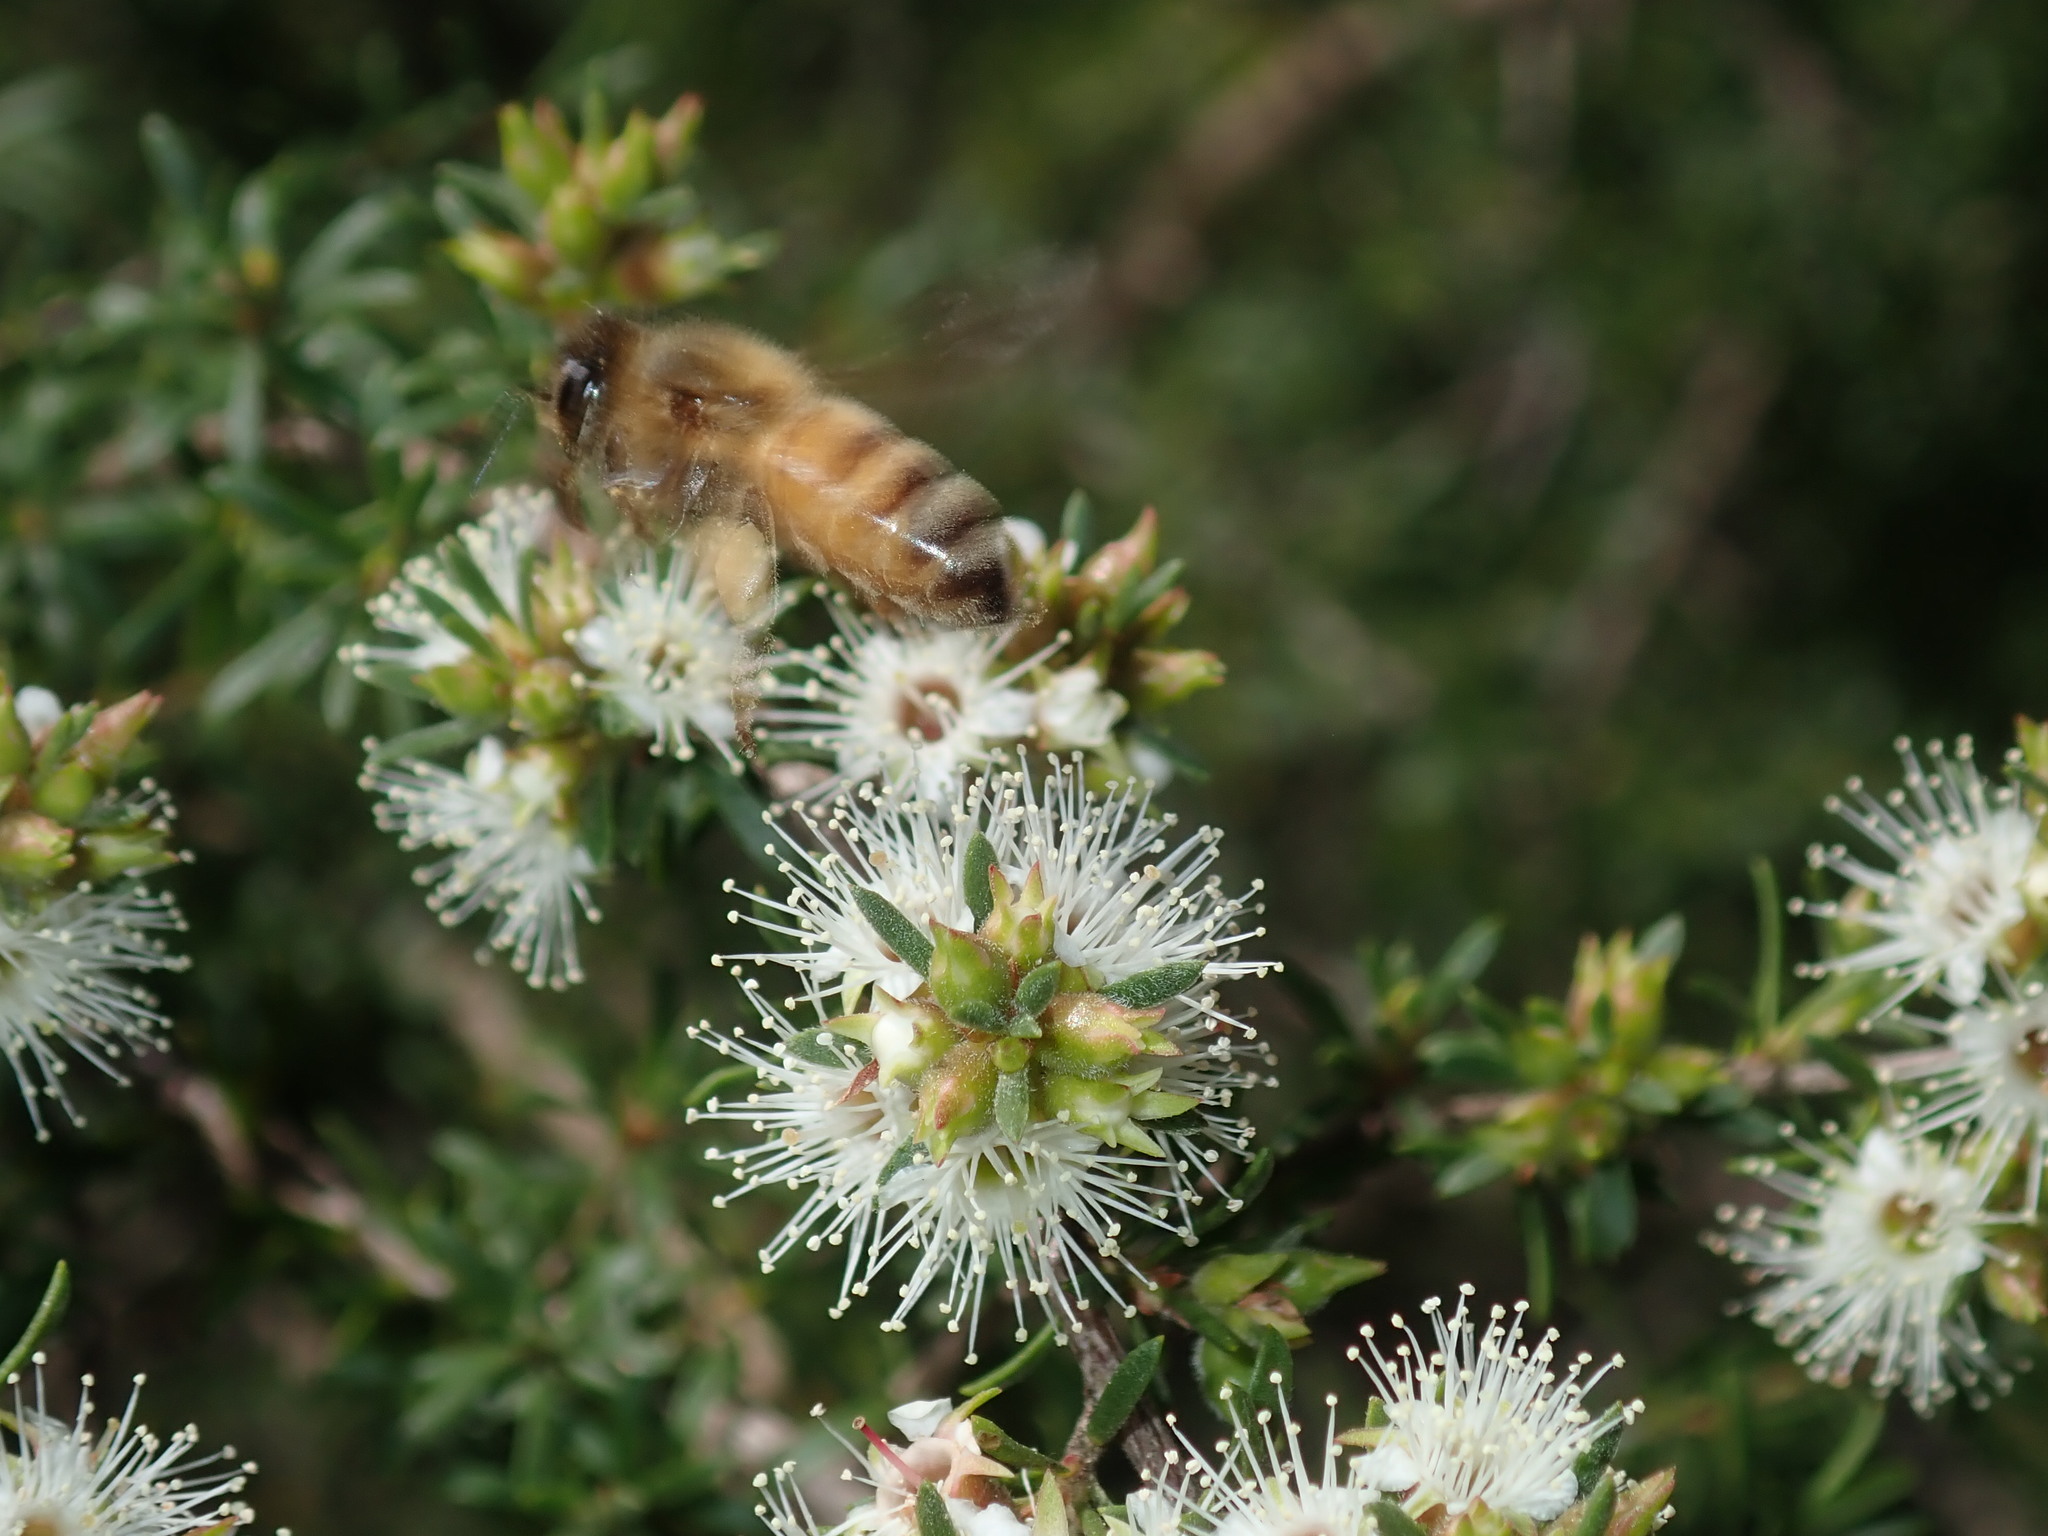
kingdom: Animalia
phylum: Arthropoda
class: Insecta
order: Hymenoptera
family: Apidae
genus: Apis
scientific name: Apis mellifera
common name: Honey bee
